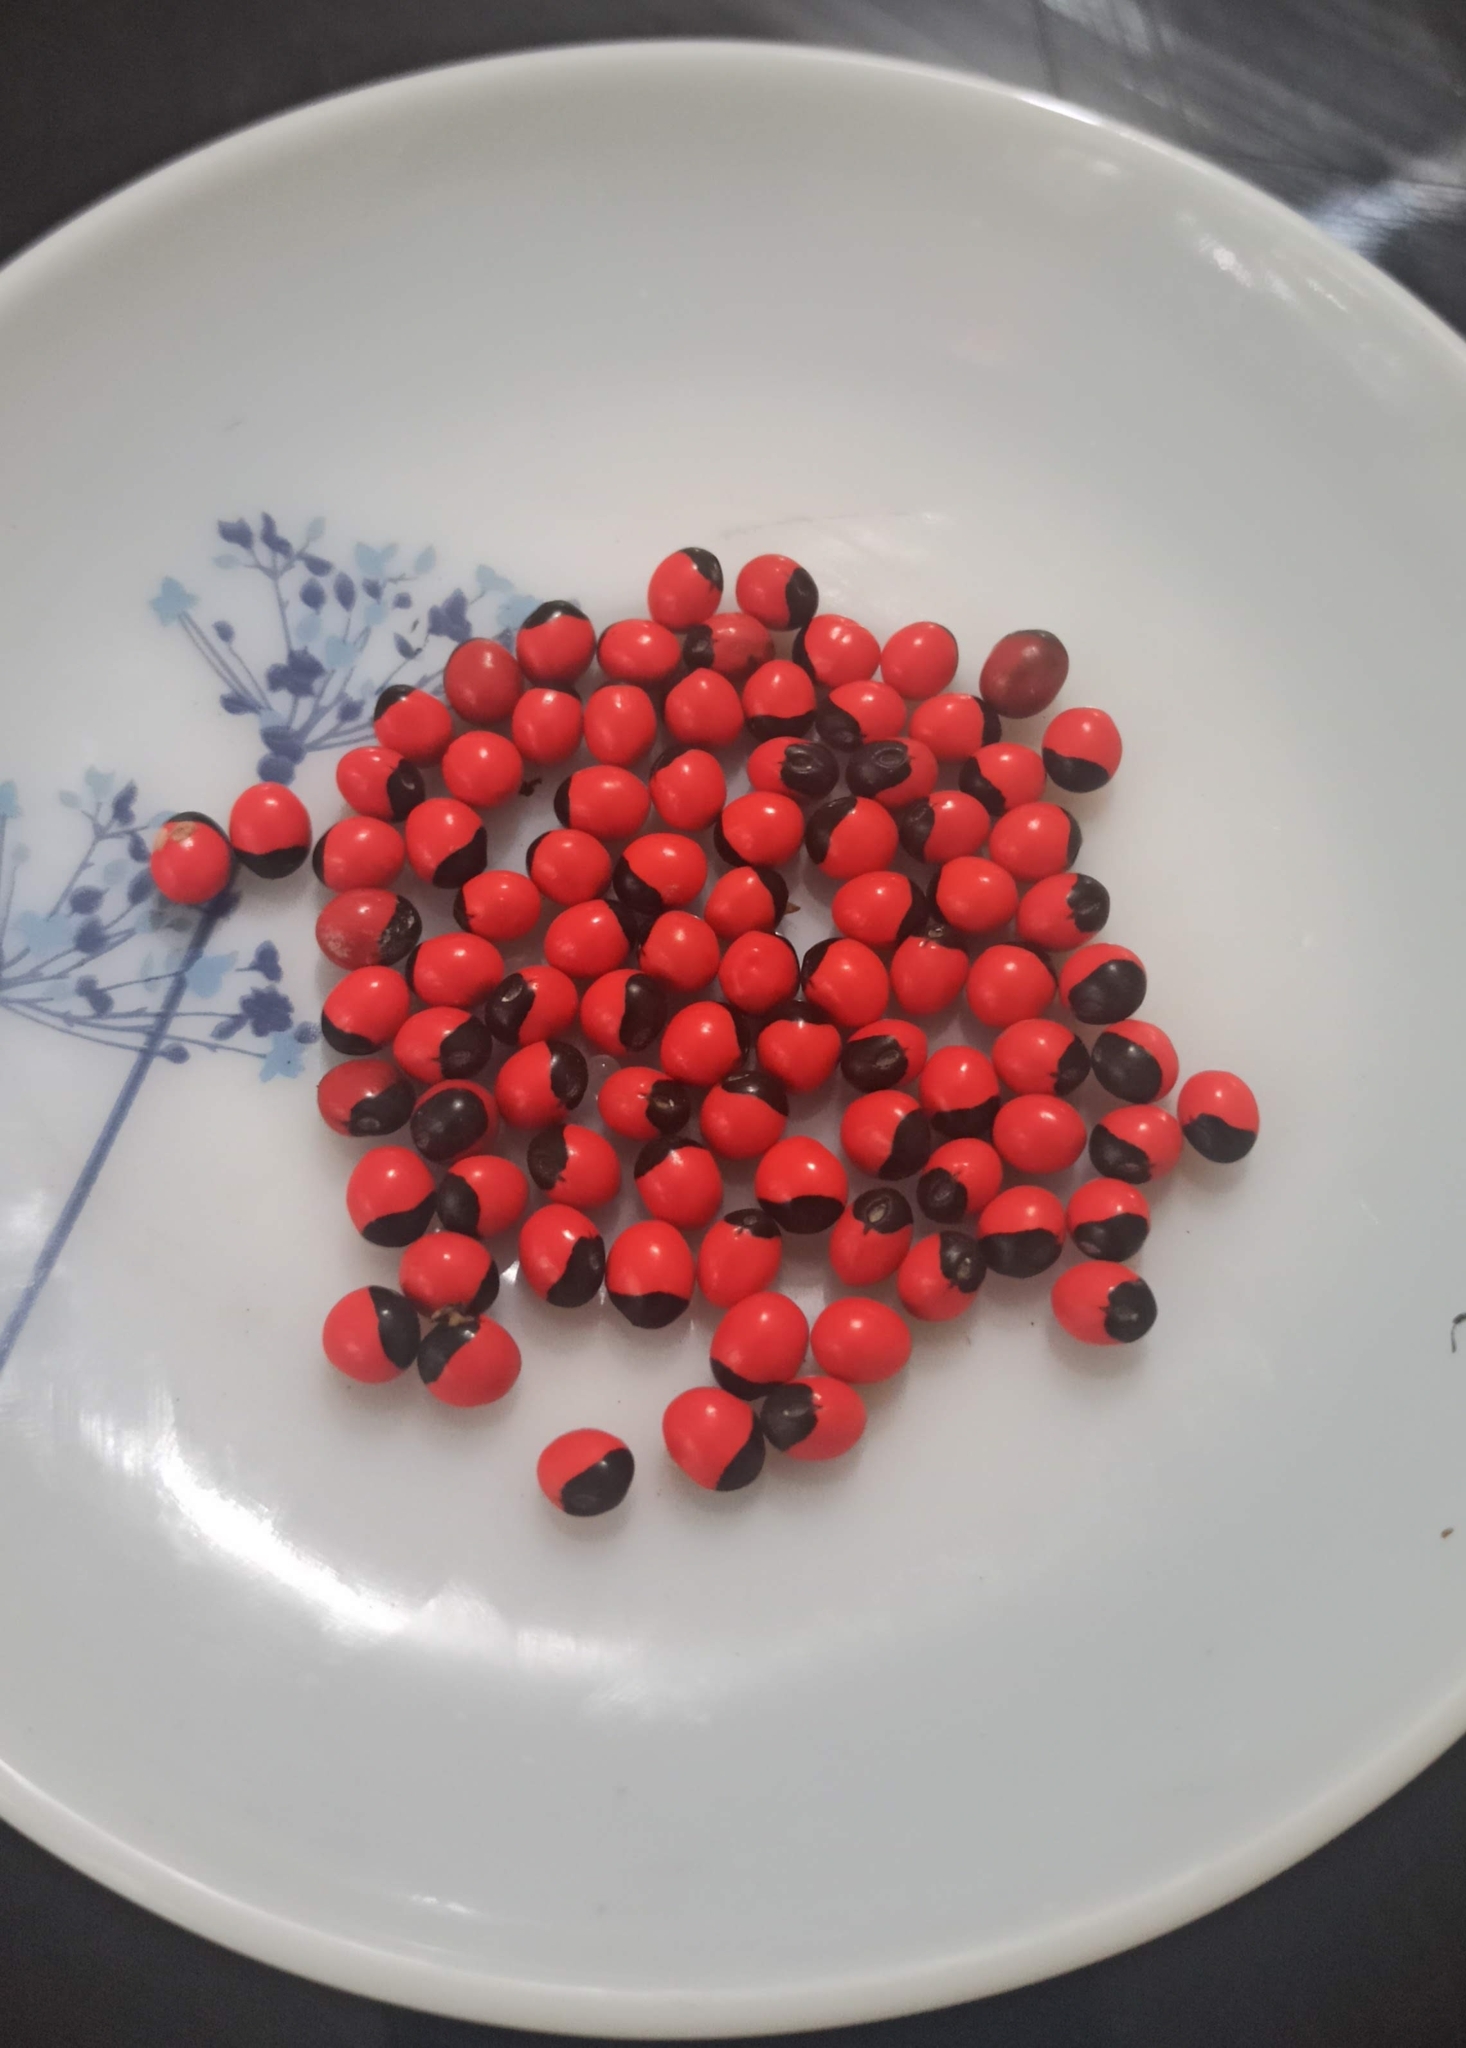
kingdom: Plantae
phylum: Tracheophyta
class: Magnoliopsida
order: Fabales
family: Fabaceae
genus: Abrus
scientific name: Abrus precatorius
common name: Rosarypea
